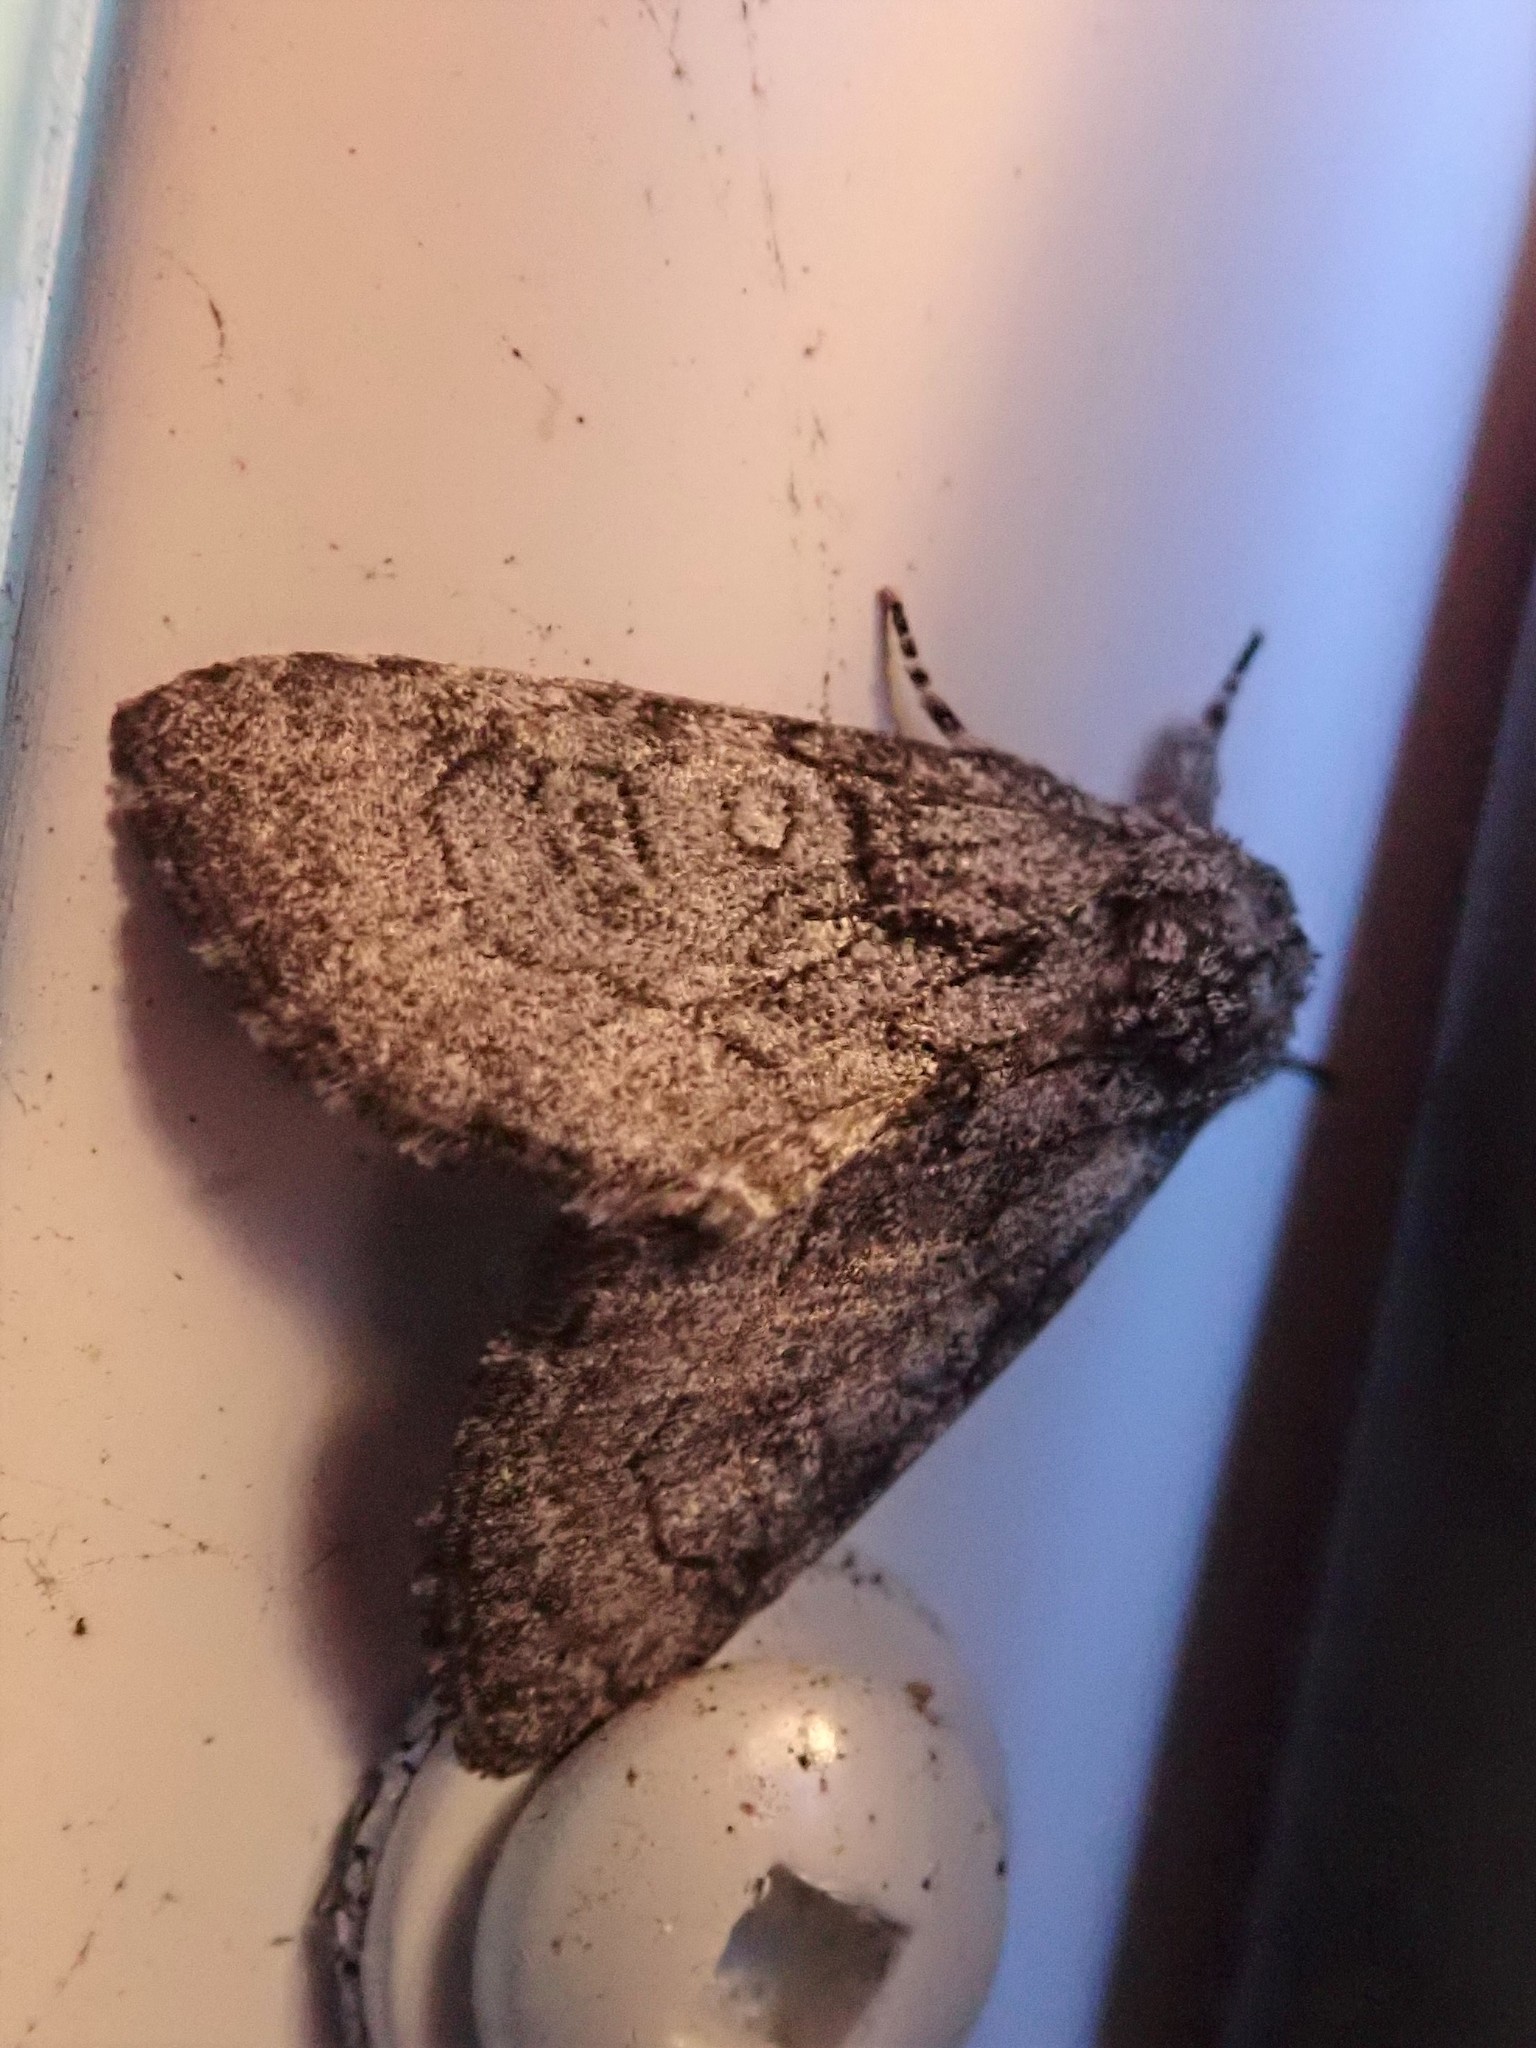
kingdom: Animalia
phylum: Arthropoda
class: Insecta
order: Lepidoptera
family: Noctuidae
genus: Raphia
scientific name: Raphia frater
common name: Brother
